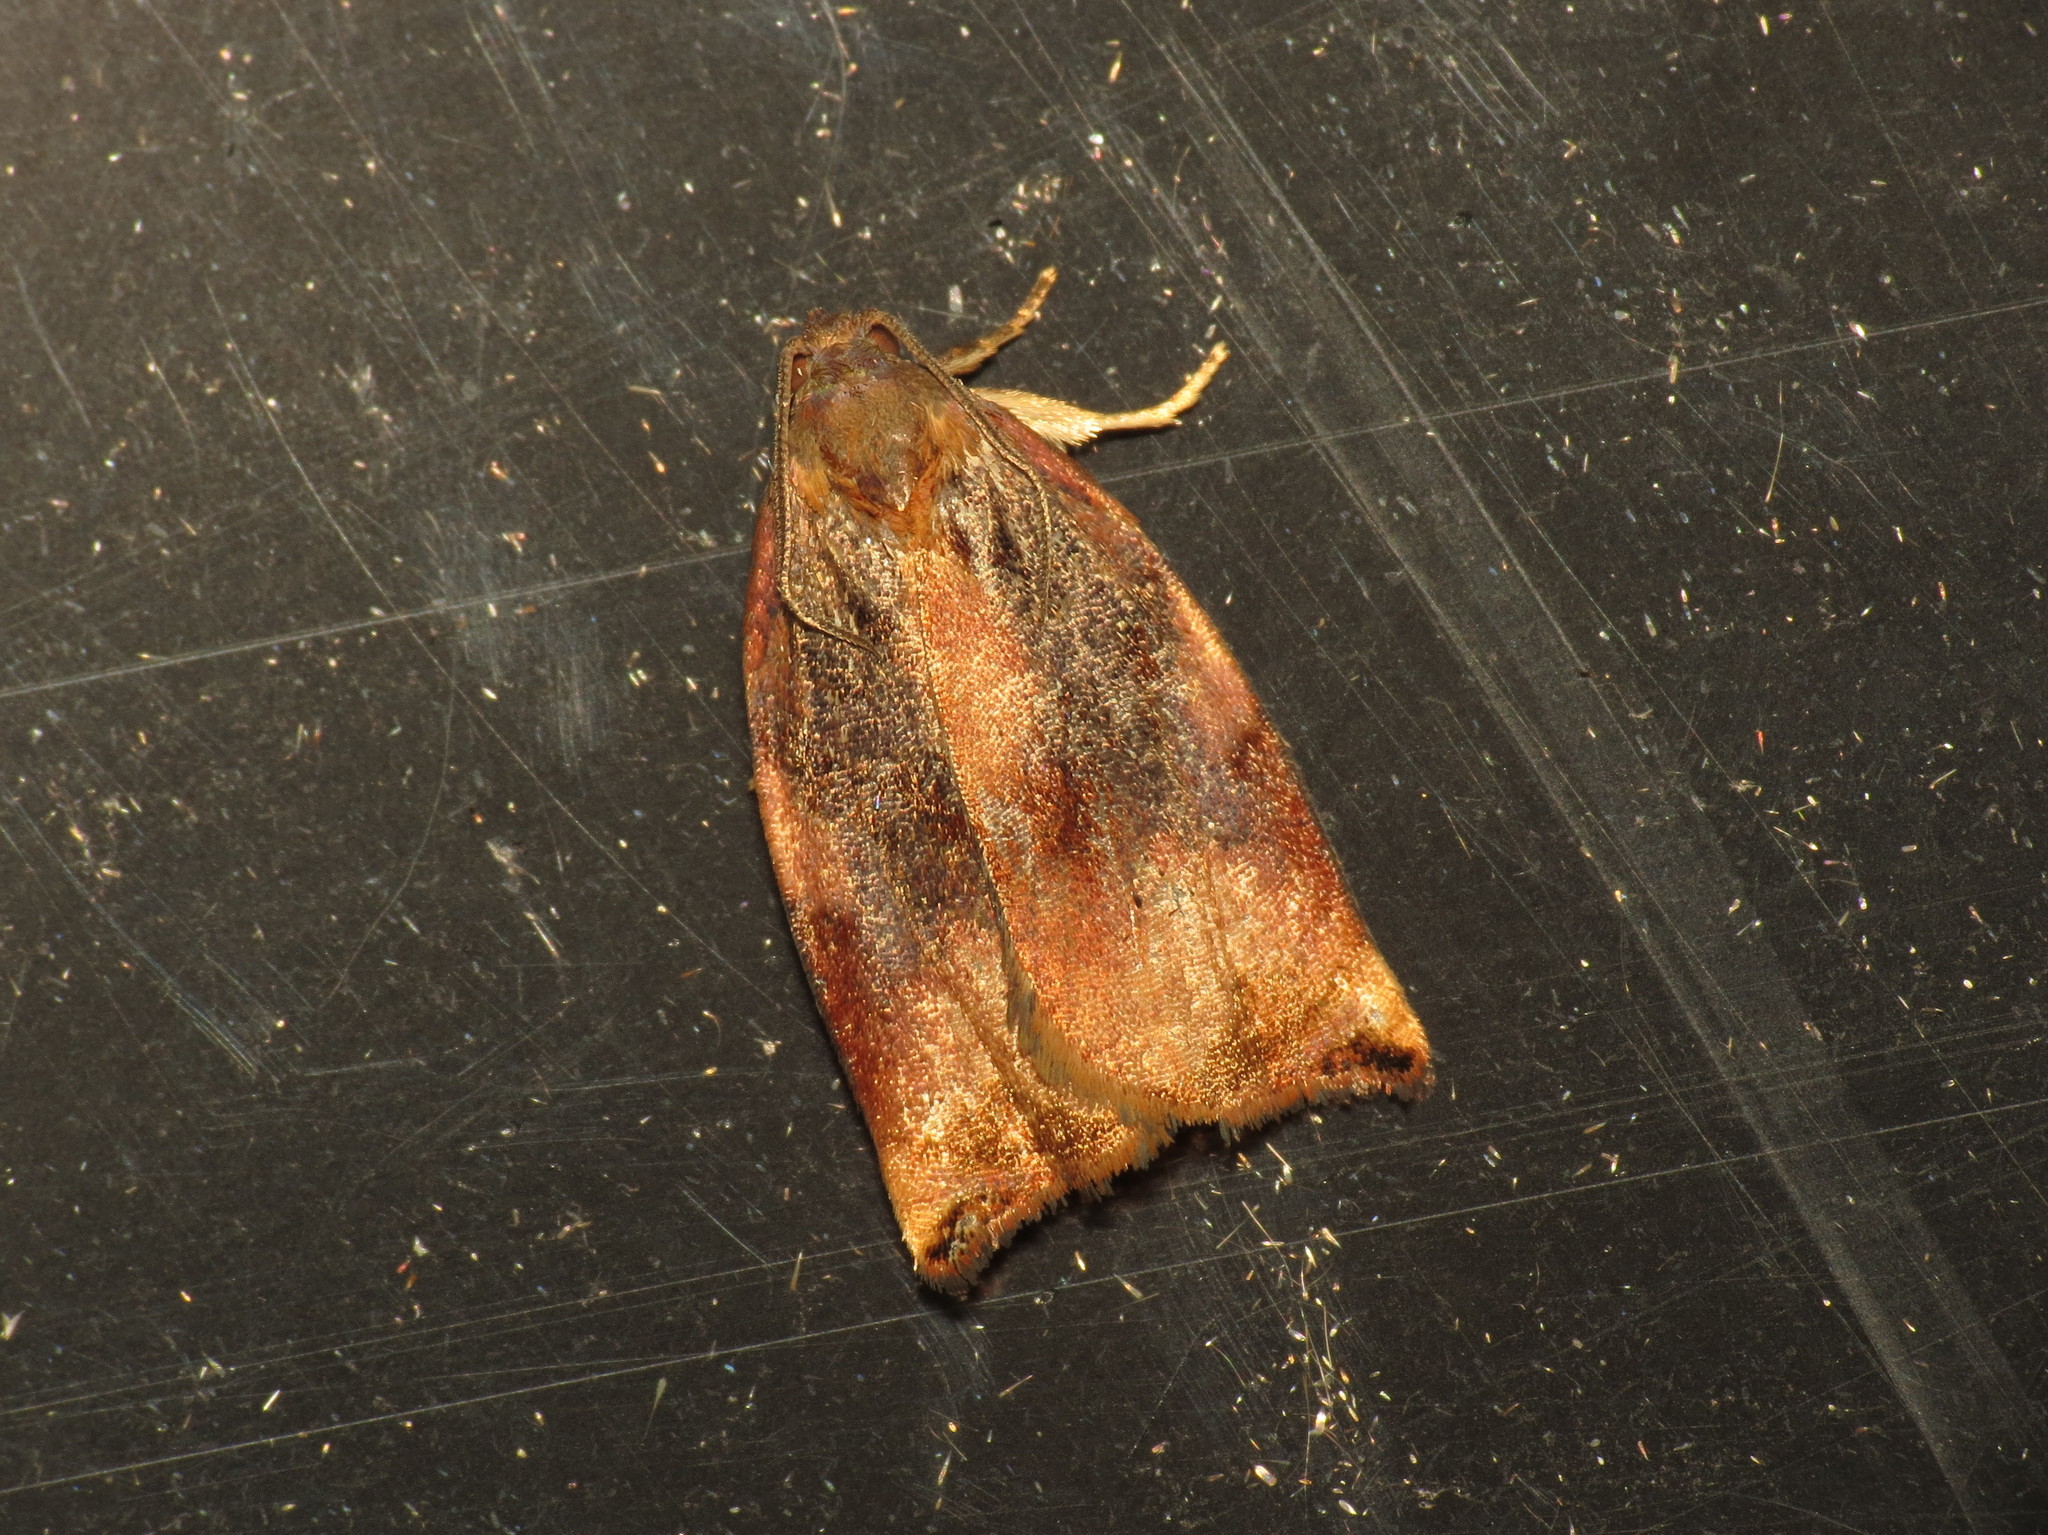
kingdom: Animalia
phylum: Arthropoda
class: Insecta
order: Lepidoptera
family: Tortricidae
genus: Archips
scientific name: Archips podana
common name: Large fruit-tree tortrix
